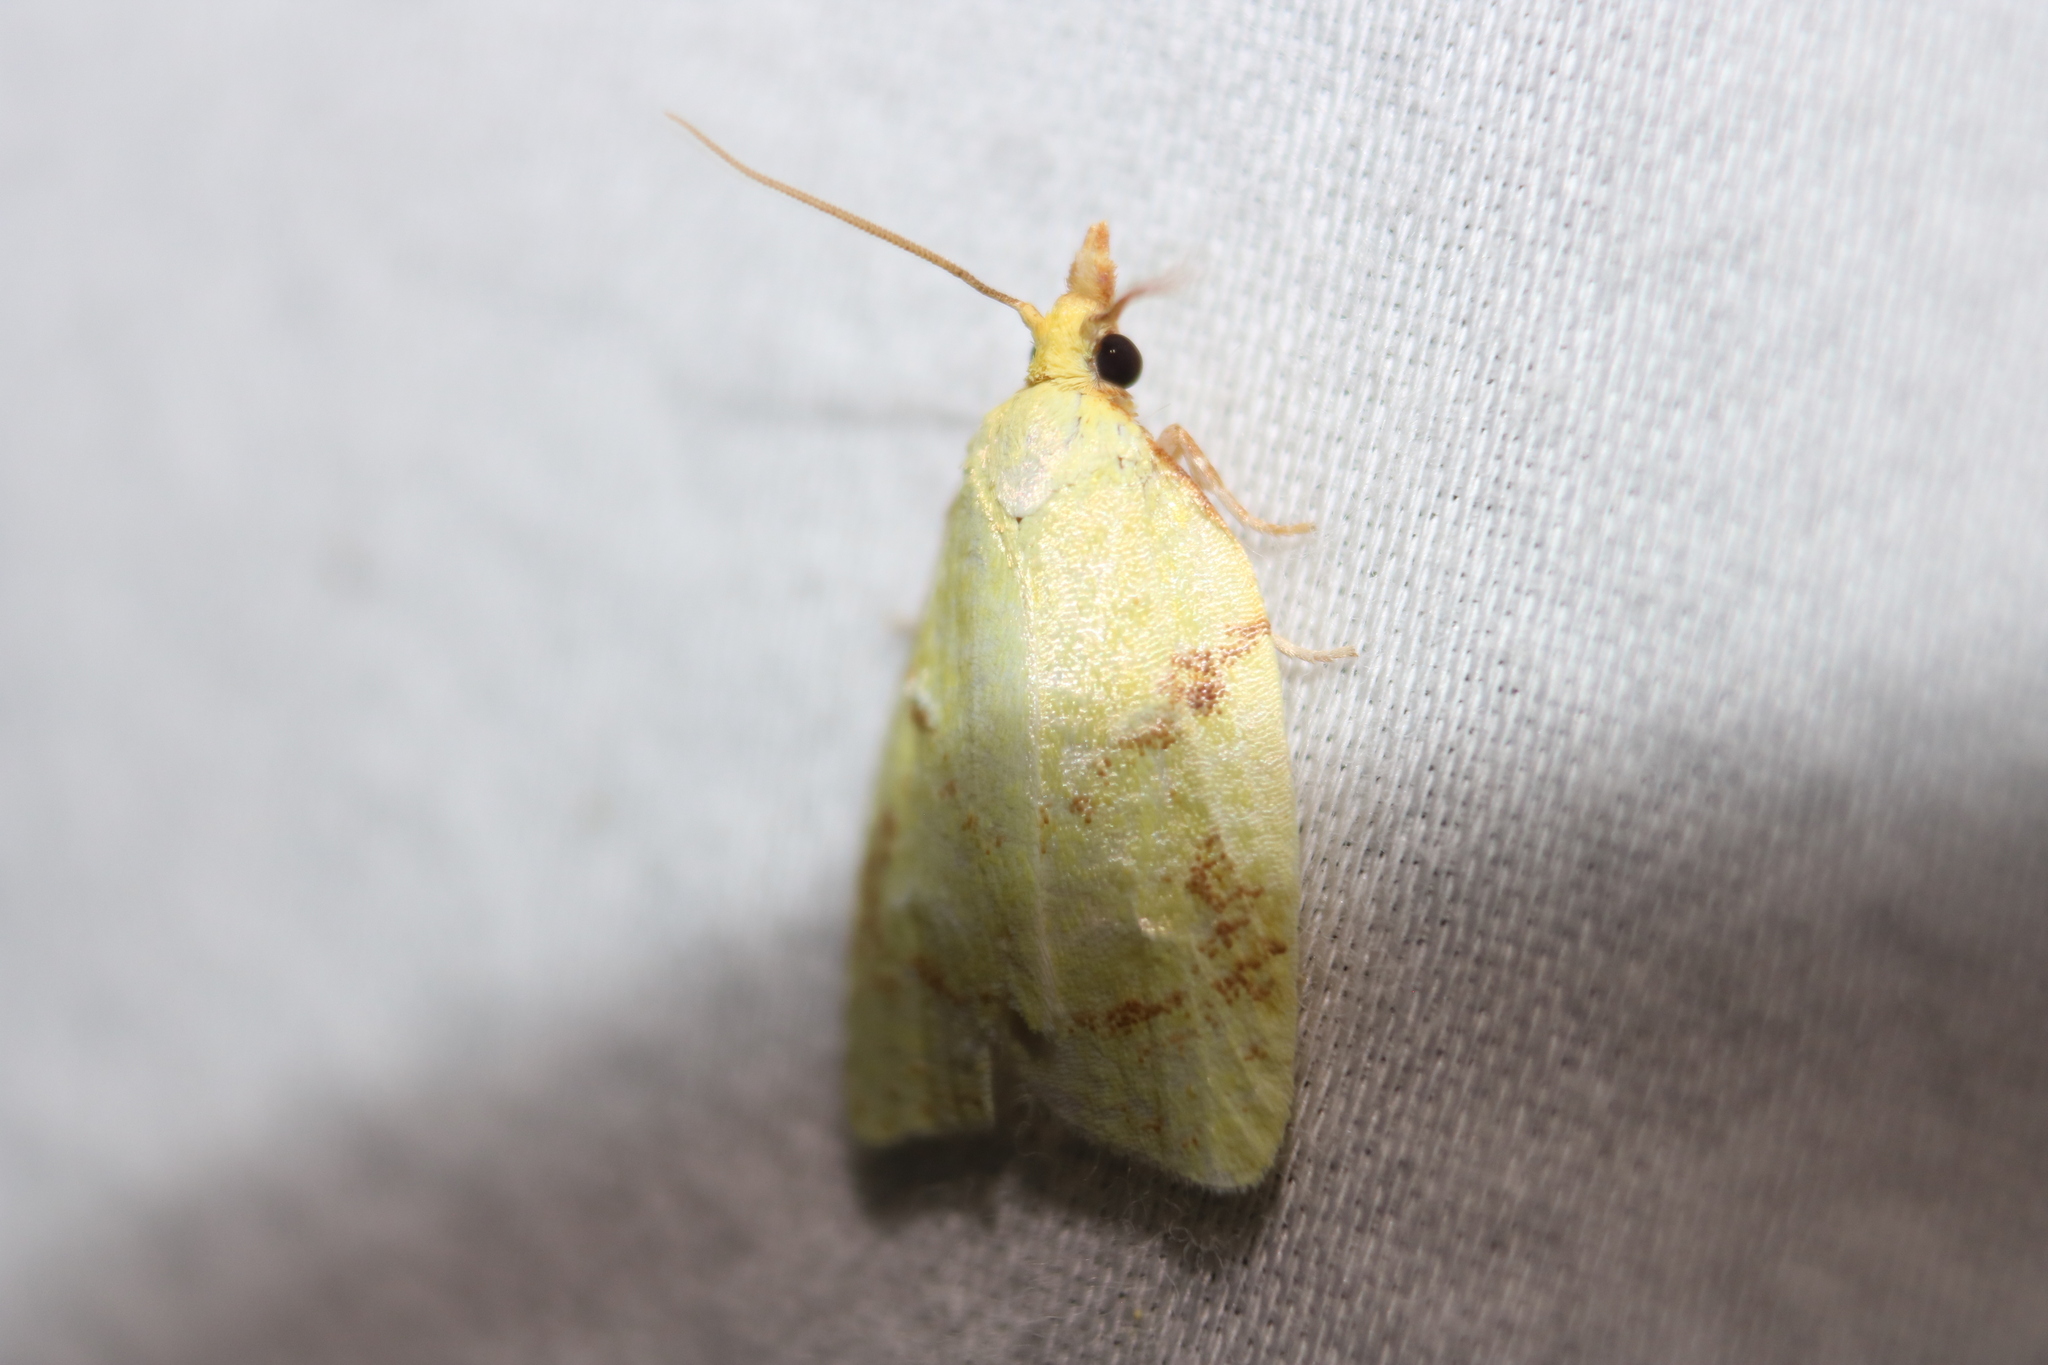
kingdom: Animalia
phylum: Arthropoda
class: Insecta
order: Lepidoptera
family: Tortricidae
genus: Cenopis
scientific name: Cenopis pettitana
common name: Maple-basswood leafroller moth
